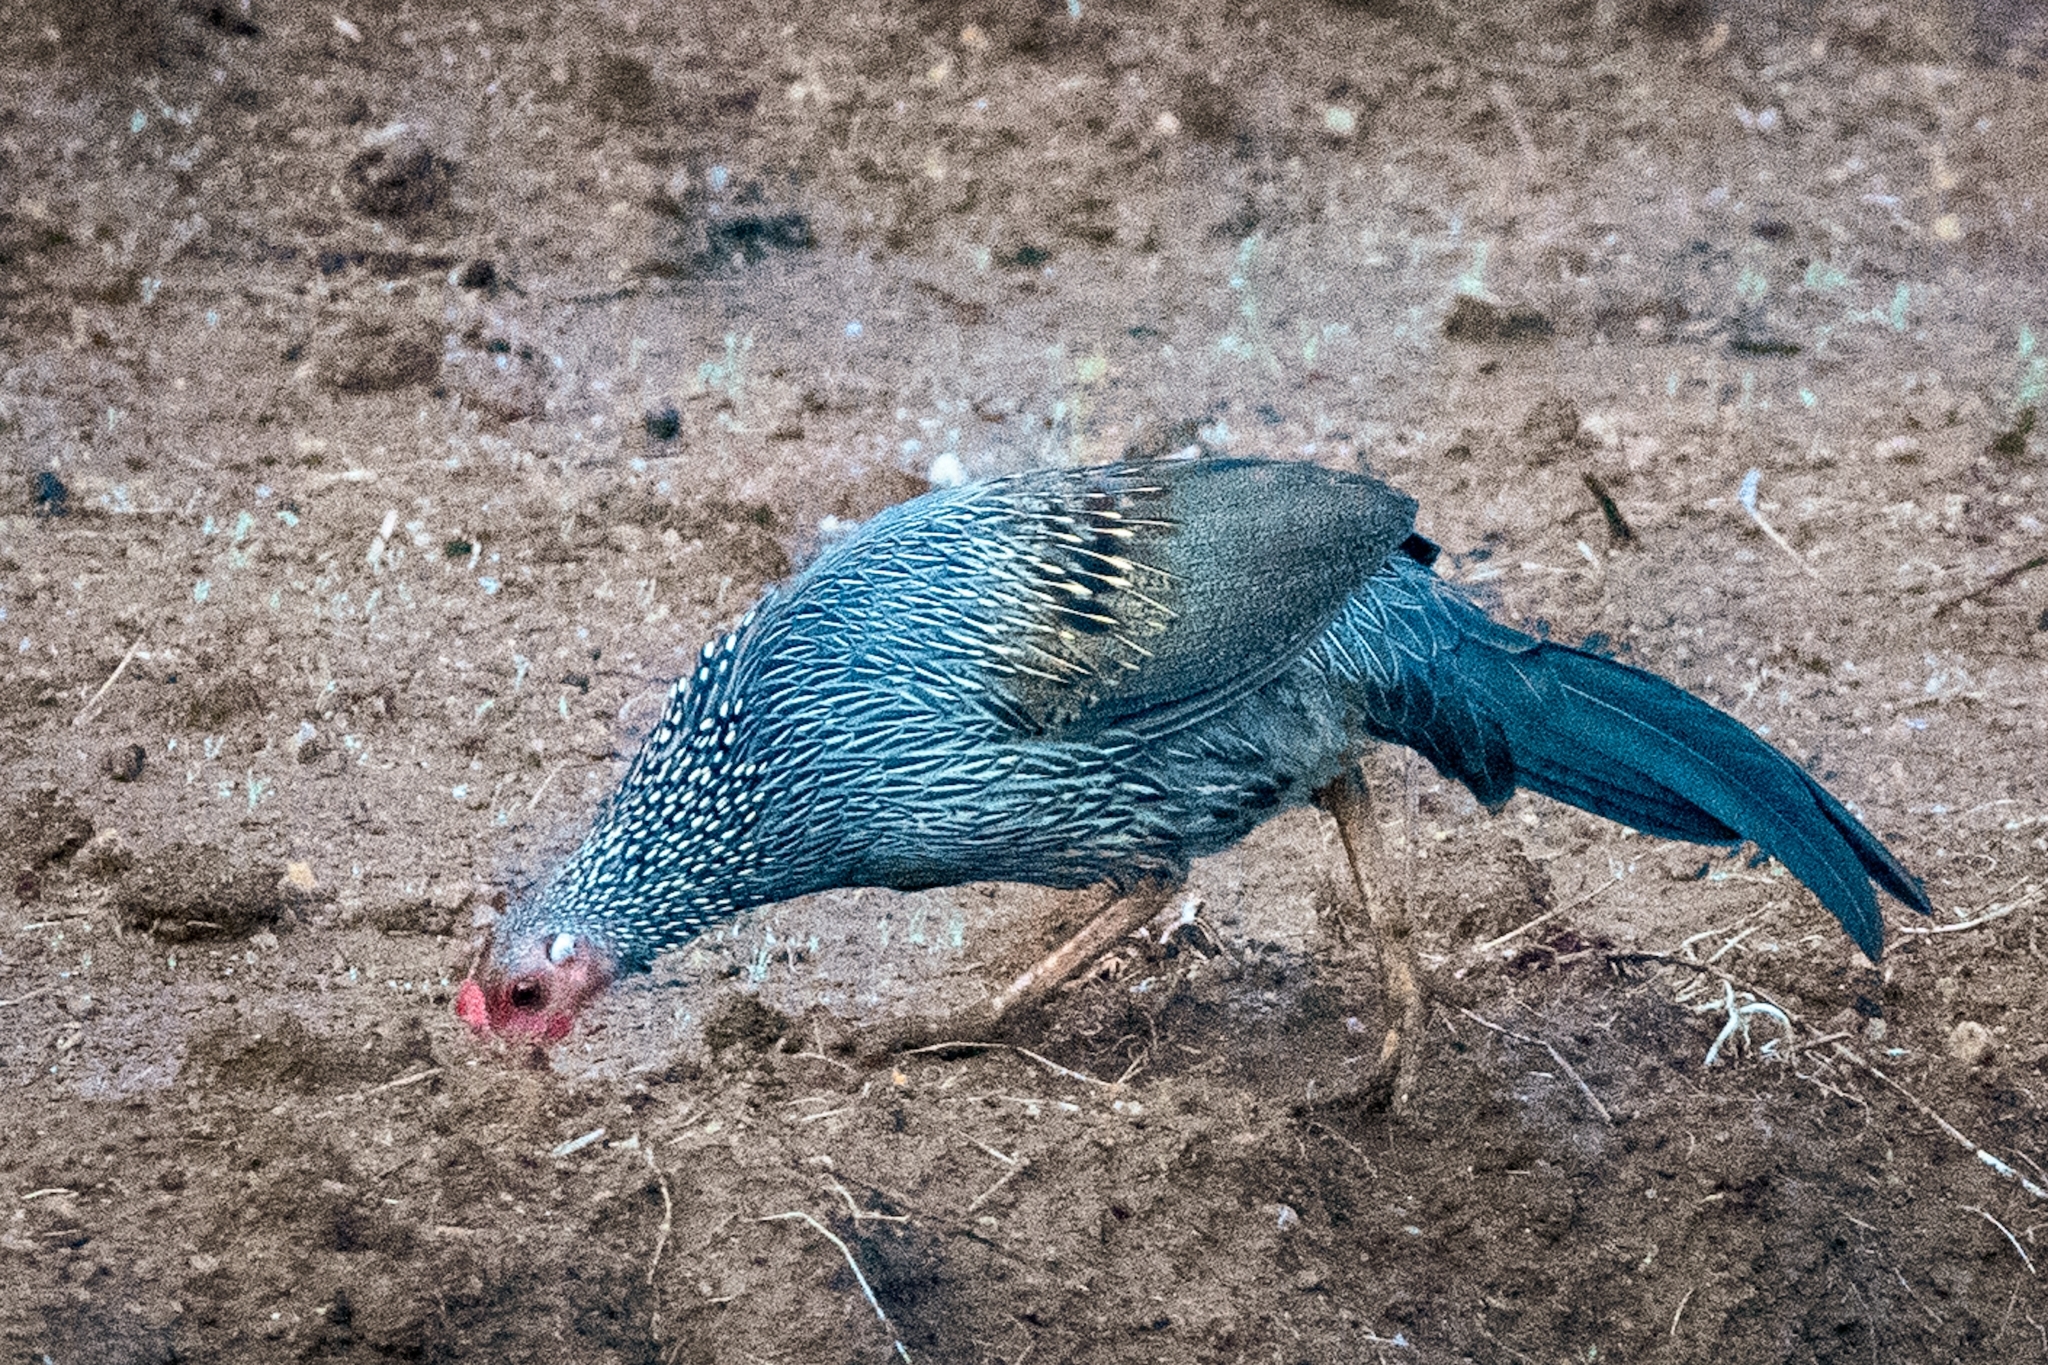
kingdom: Animalia
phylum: Chordata
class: Aves
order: Galliformes
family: Phasianidae
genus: Gallus
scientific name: Gallus sonneratii
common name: Grey junglefowl
